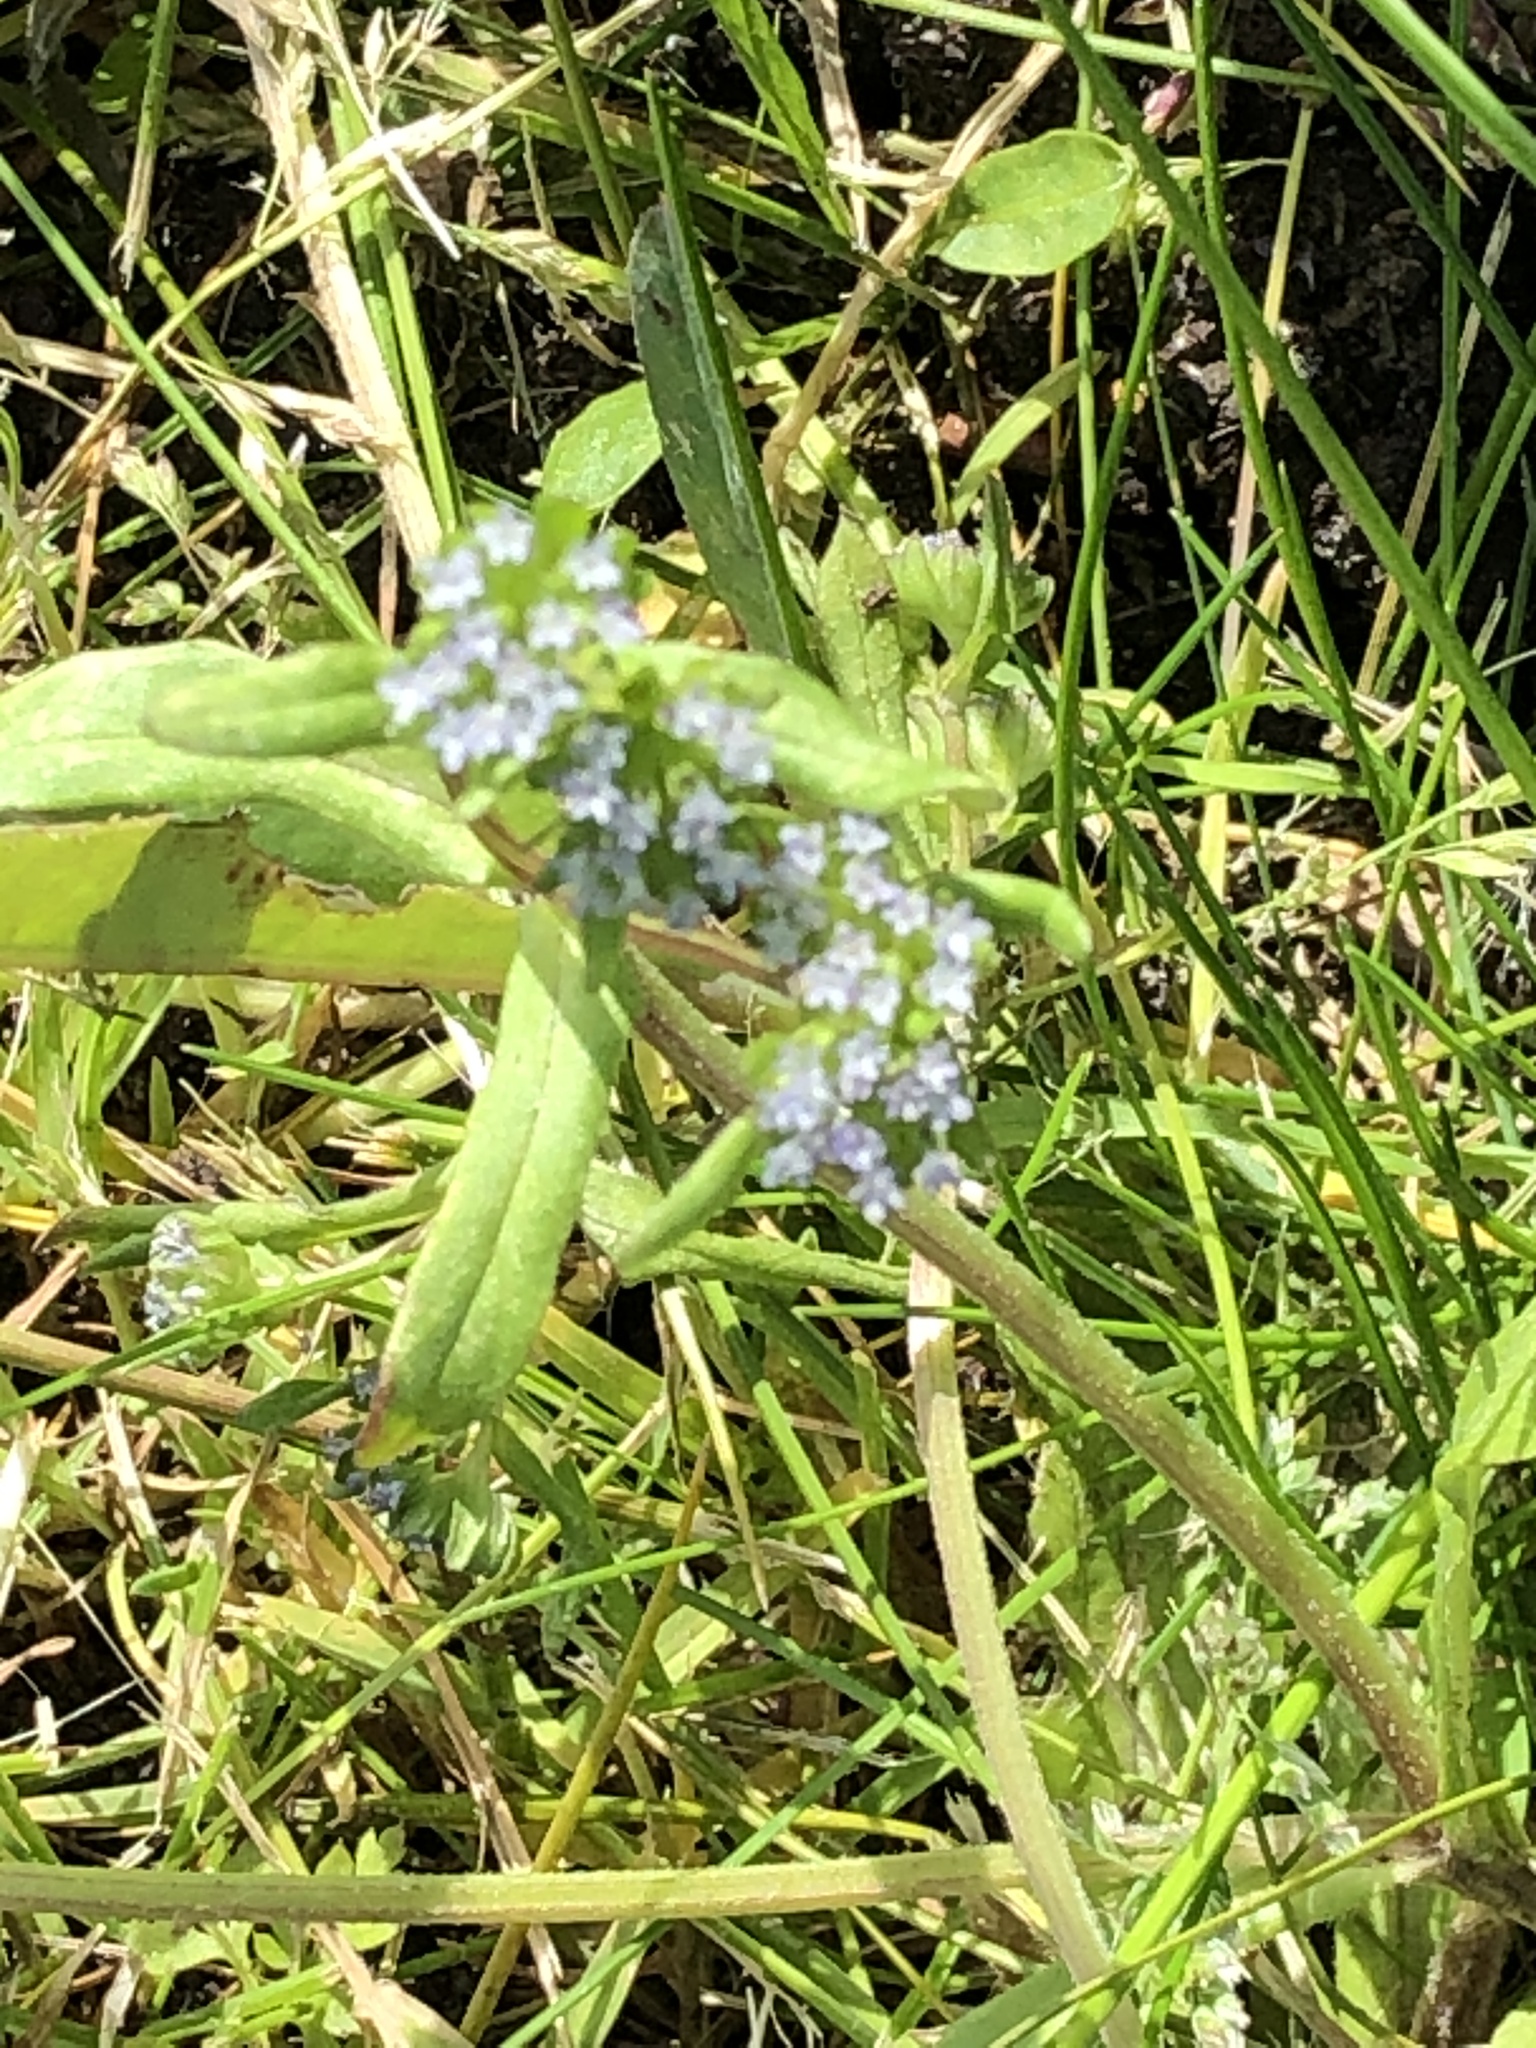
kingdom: Plantae
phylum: Tracheophyta
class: Magnoliopsida
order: Dipsacales
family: Caprifoliaceae
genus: Valerianella
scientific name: Valerianella locusta
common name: Common cornsalad
